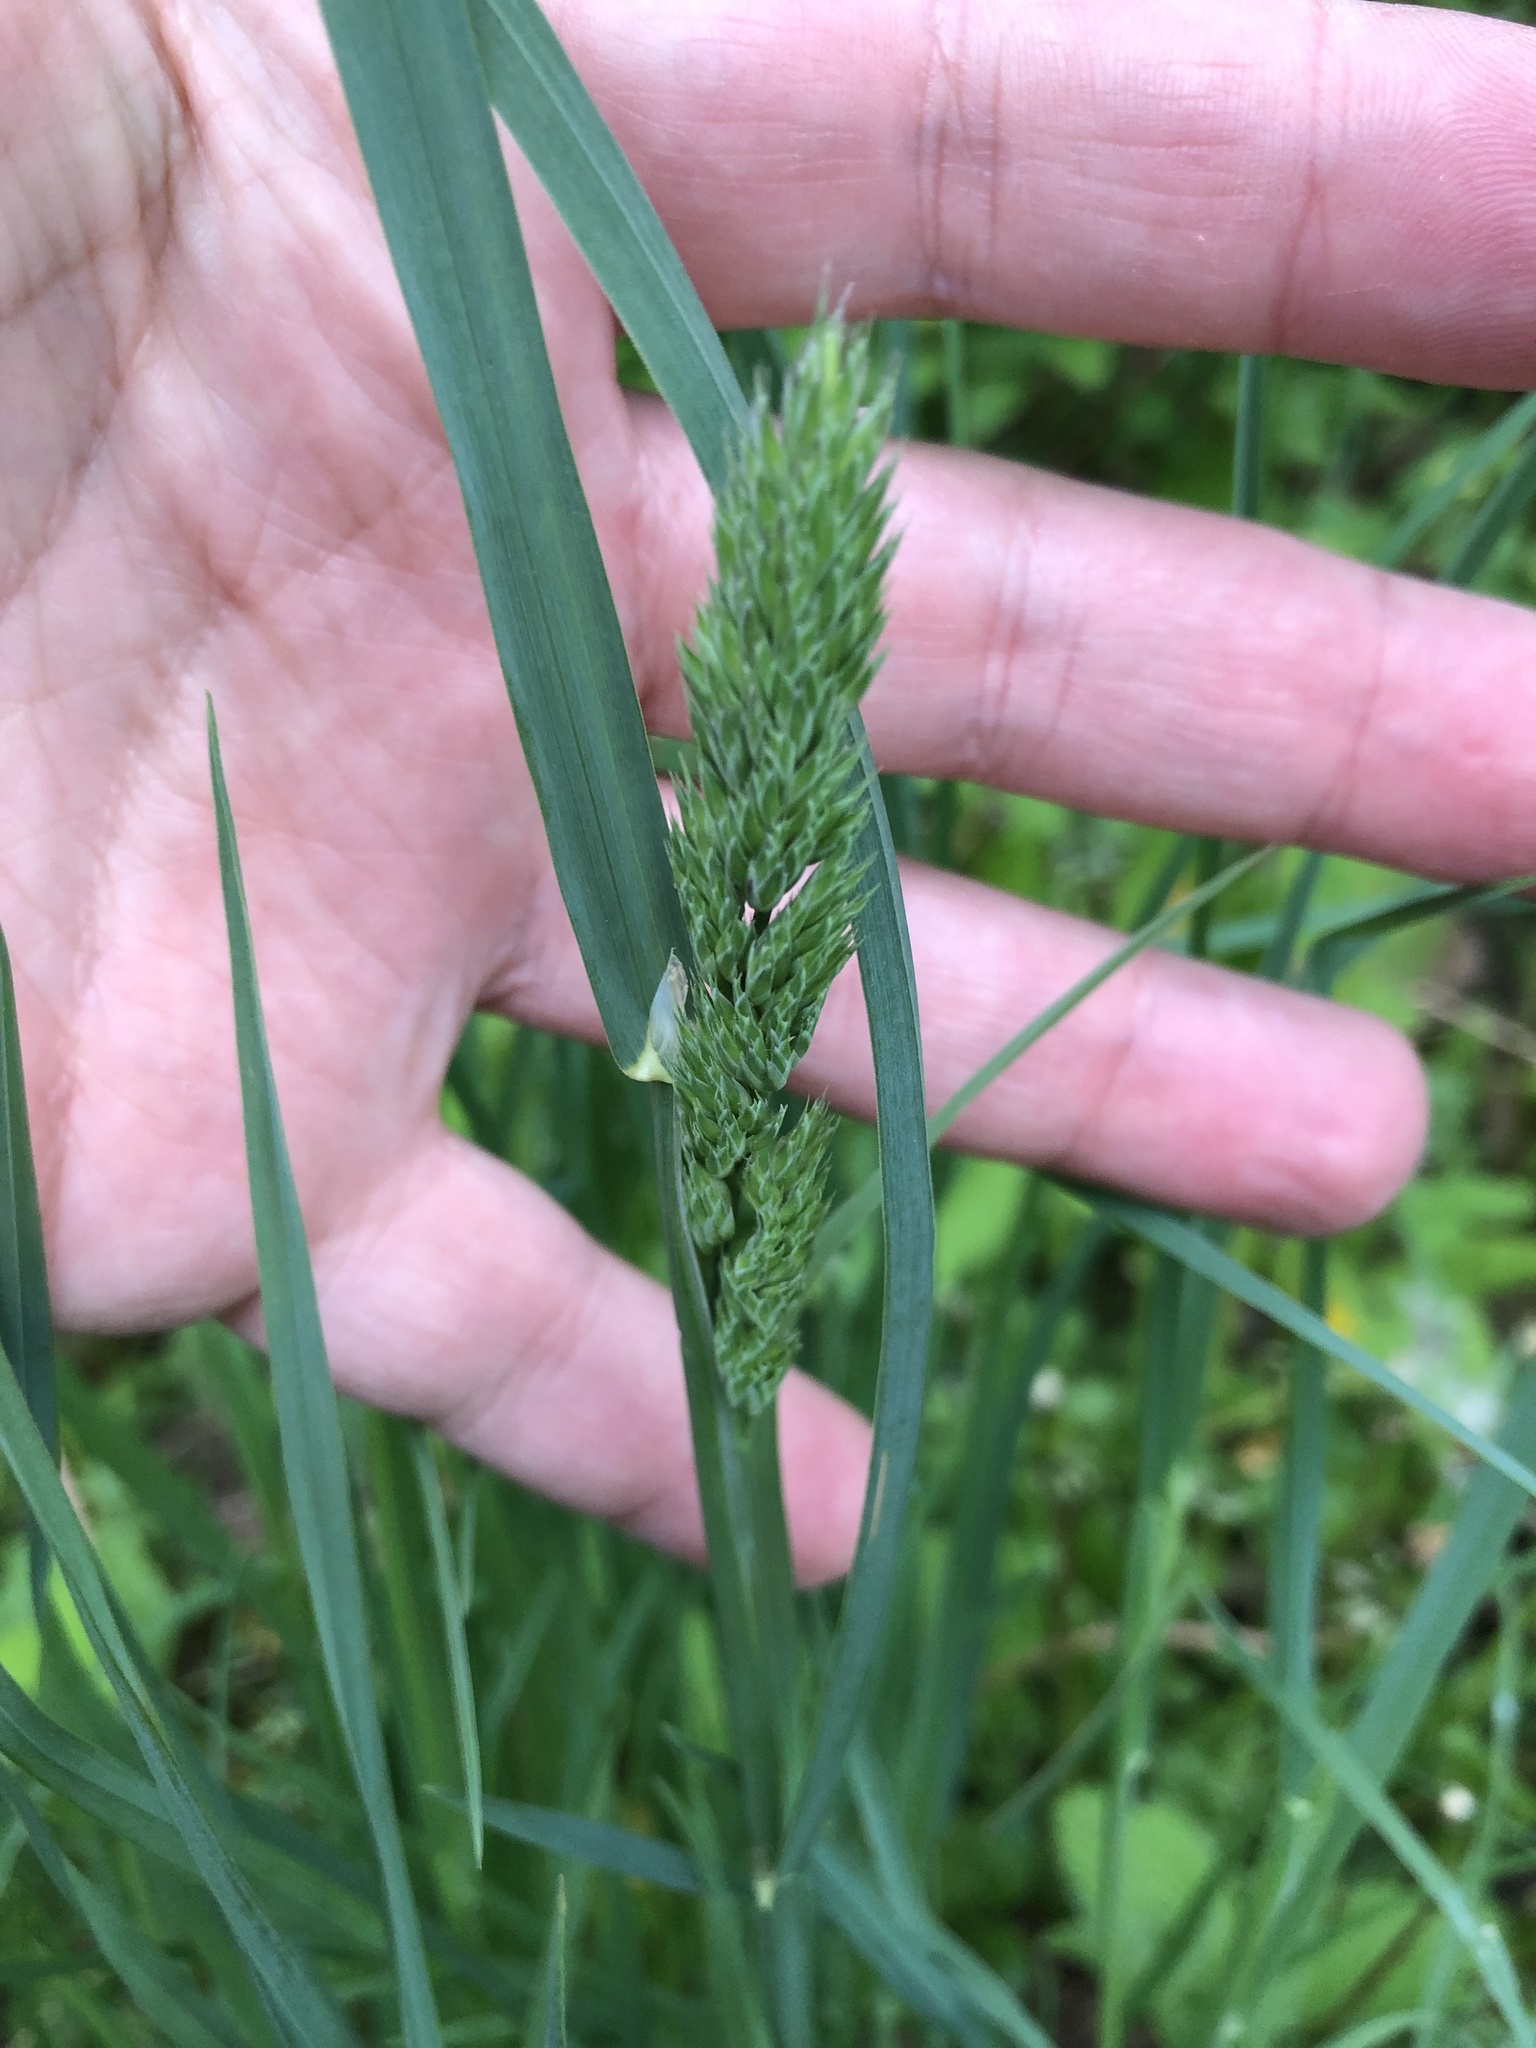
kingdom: Plantae
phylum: Tracheophyta
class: Liliopsida
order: Poales
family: Poaceae
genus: Dactylis
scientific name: Dactylis glomerata
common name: Orchardgrass
